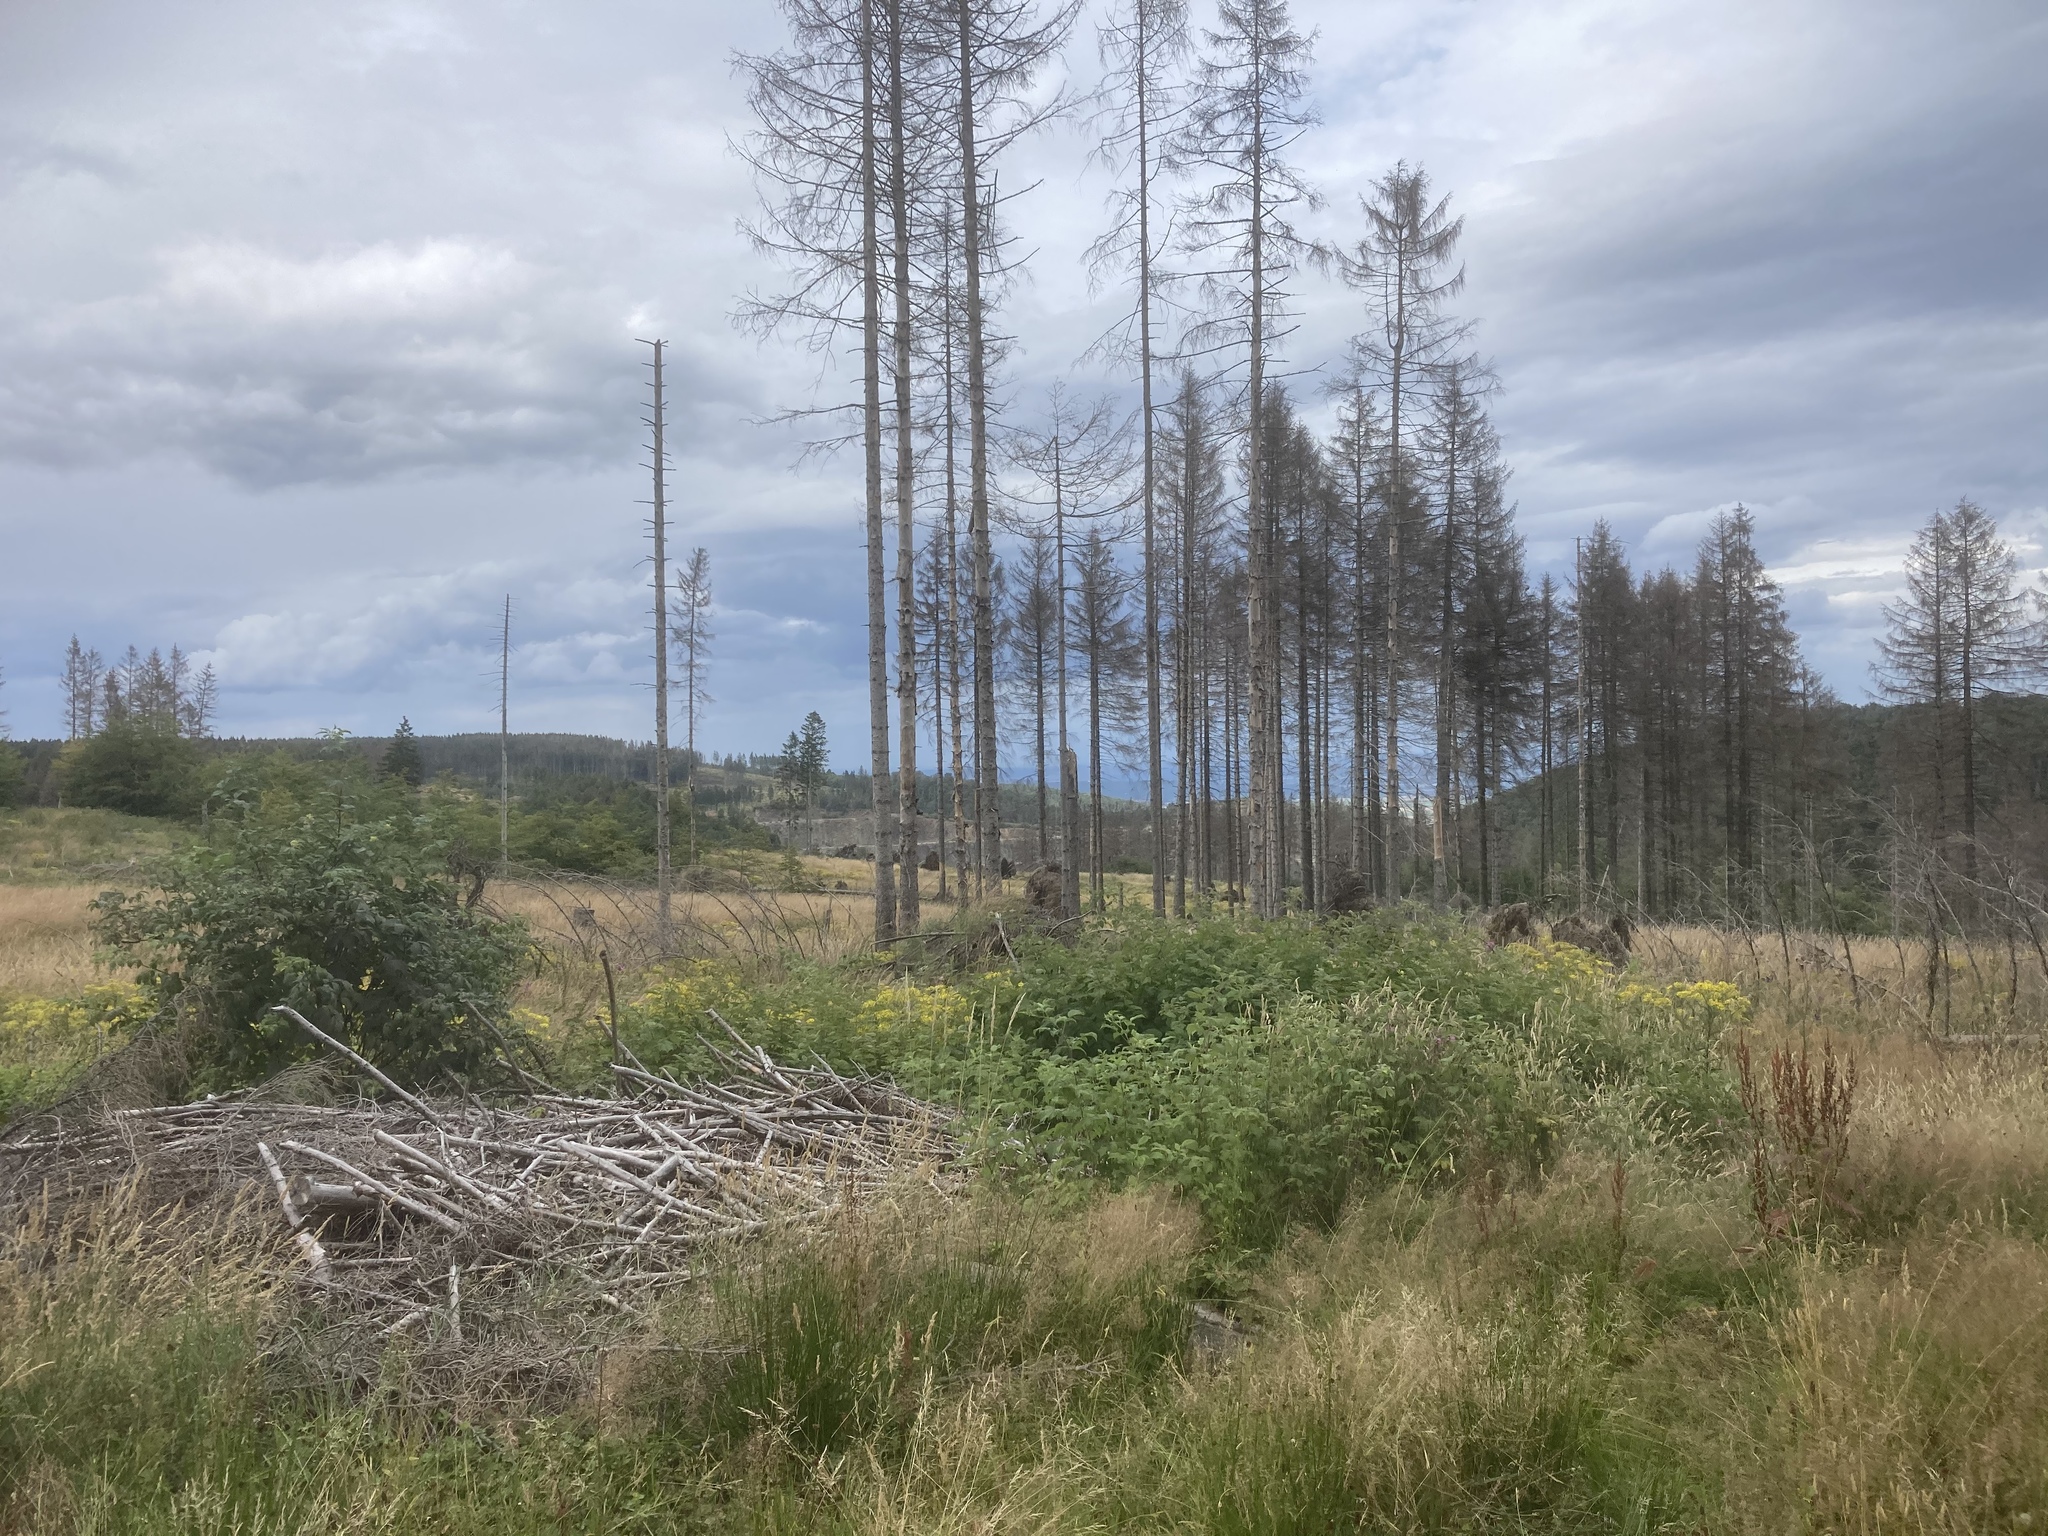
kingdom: Animalia
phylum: Arthropoda
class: Insecta
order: Coleoptera
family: Curculionidae
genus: Ips
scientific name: Ips typographus
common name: Eight-toothed spruce bark beetle
